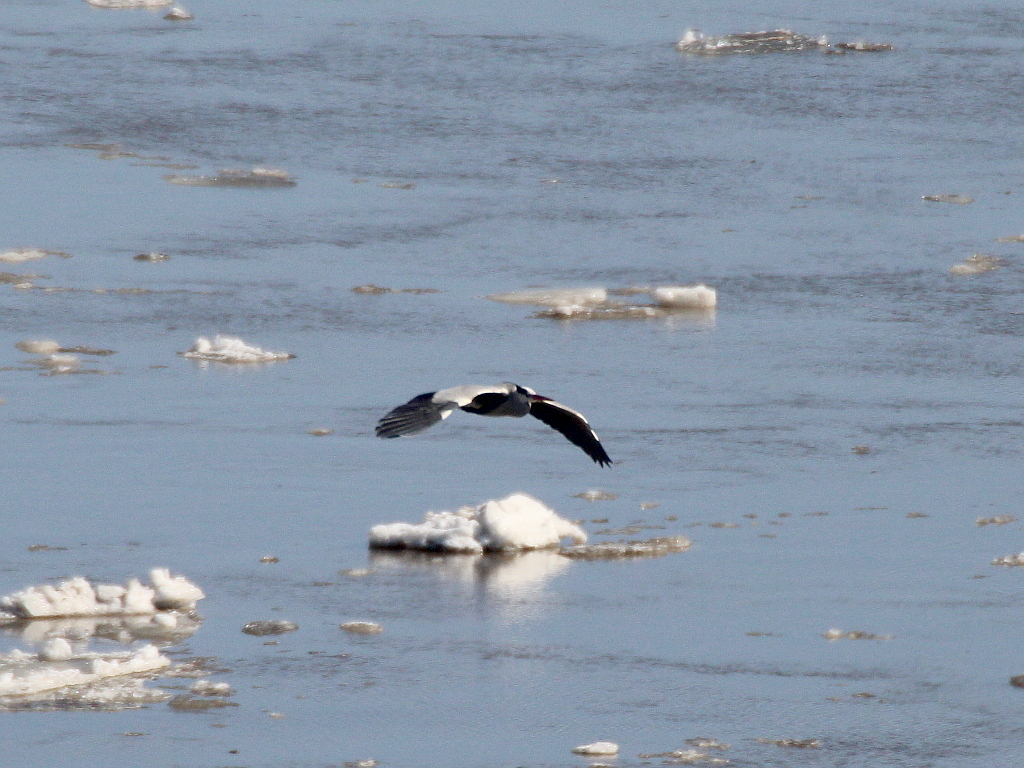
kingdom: Animalia
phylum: Chordata
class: Aves
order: Pelecaniformes
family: Ardeidae
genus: Ardea
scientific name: Ardea cinerea
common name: Grey heron
